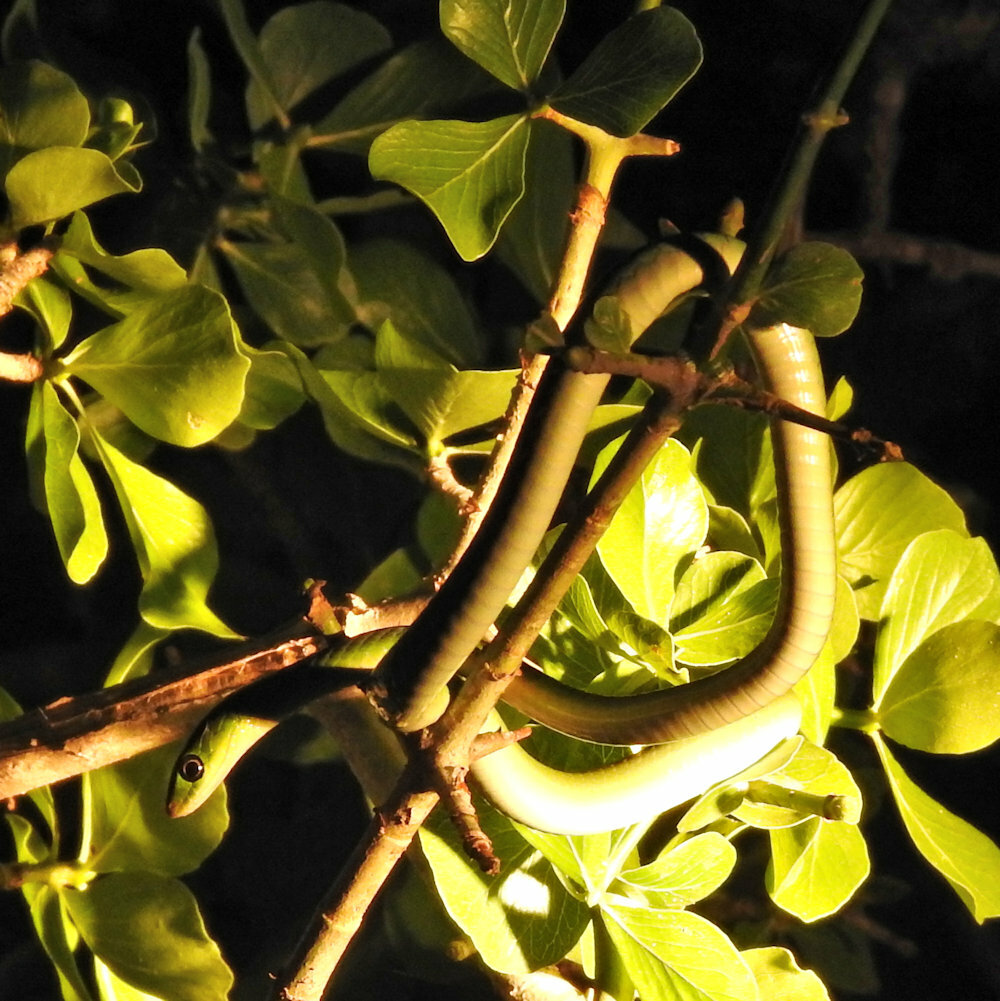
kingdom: Animalia
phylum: Chordata
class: Squamata
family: Colubridae
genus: Philothamnus
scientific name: Philothamnus hoplogaster
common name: Green water snake
